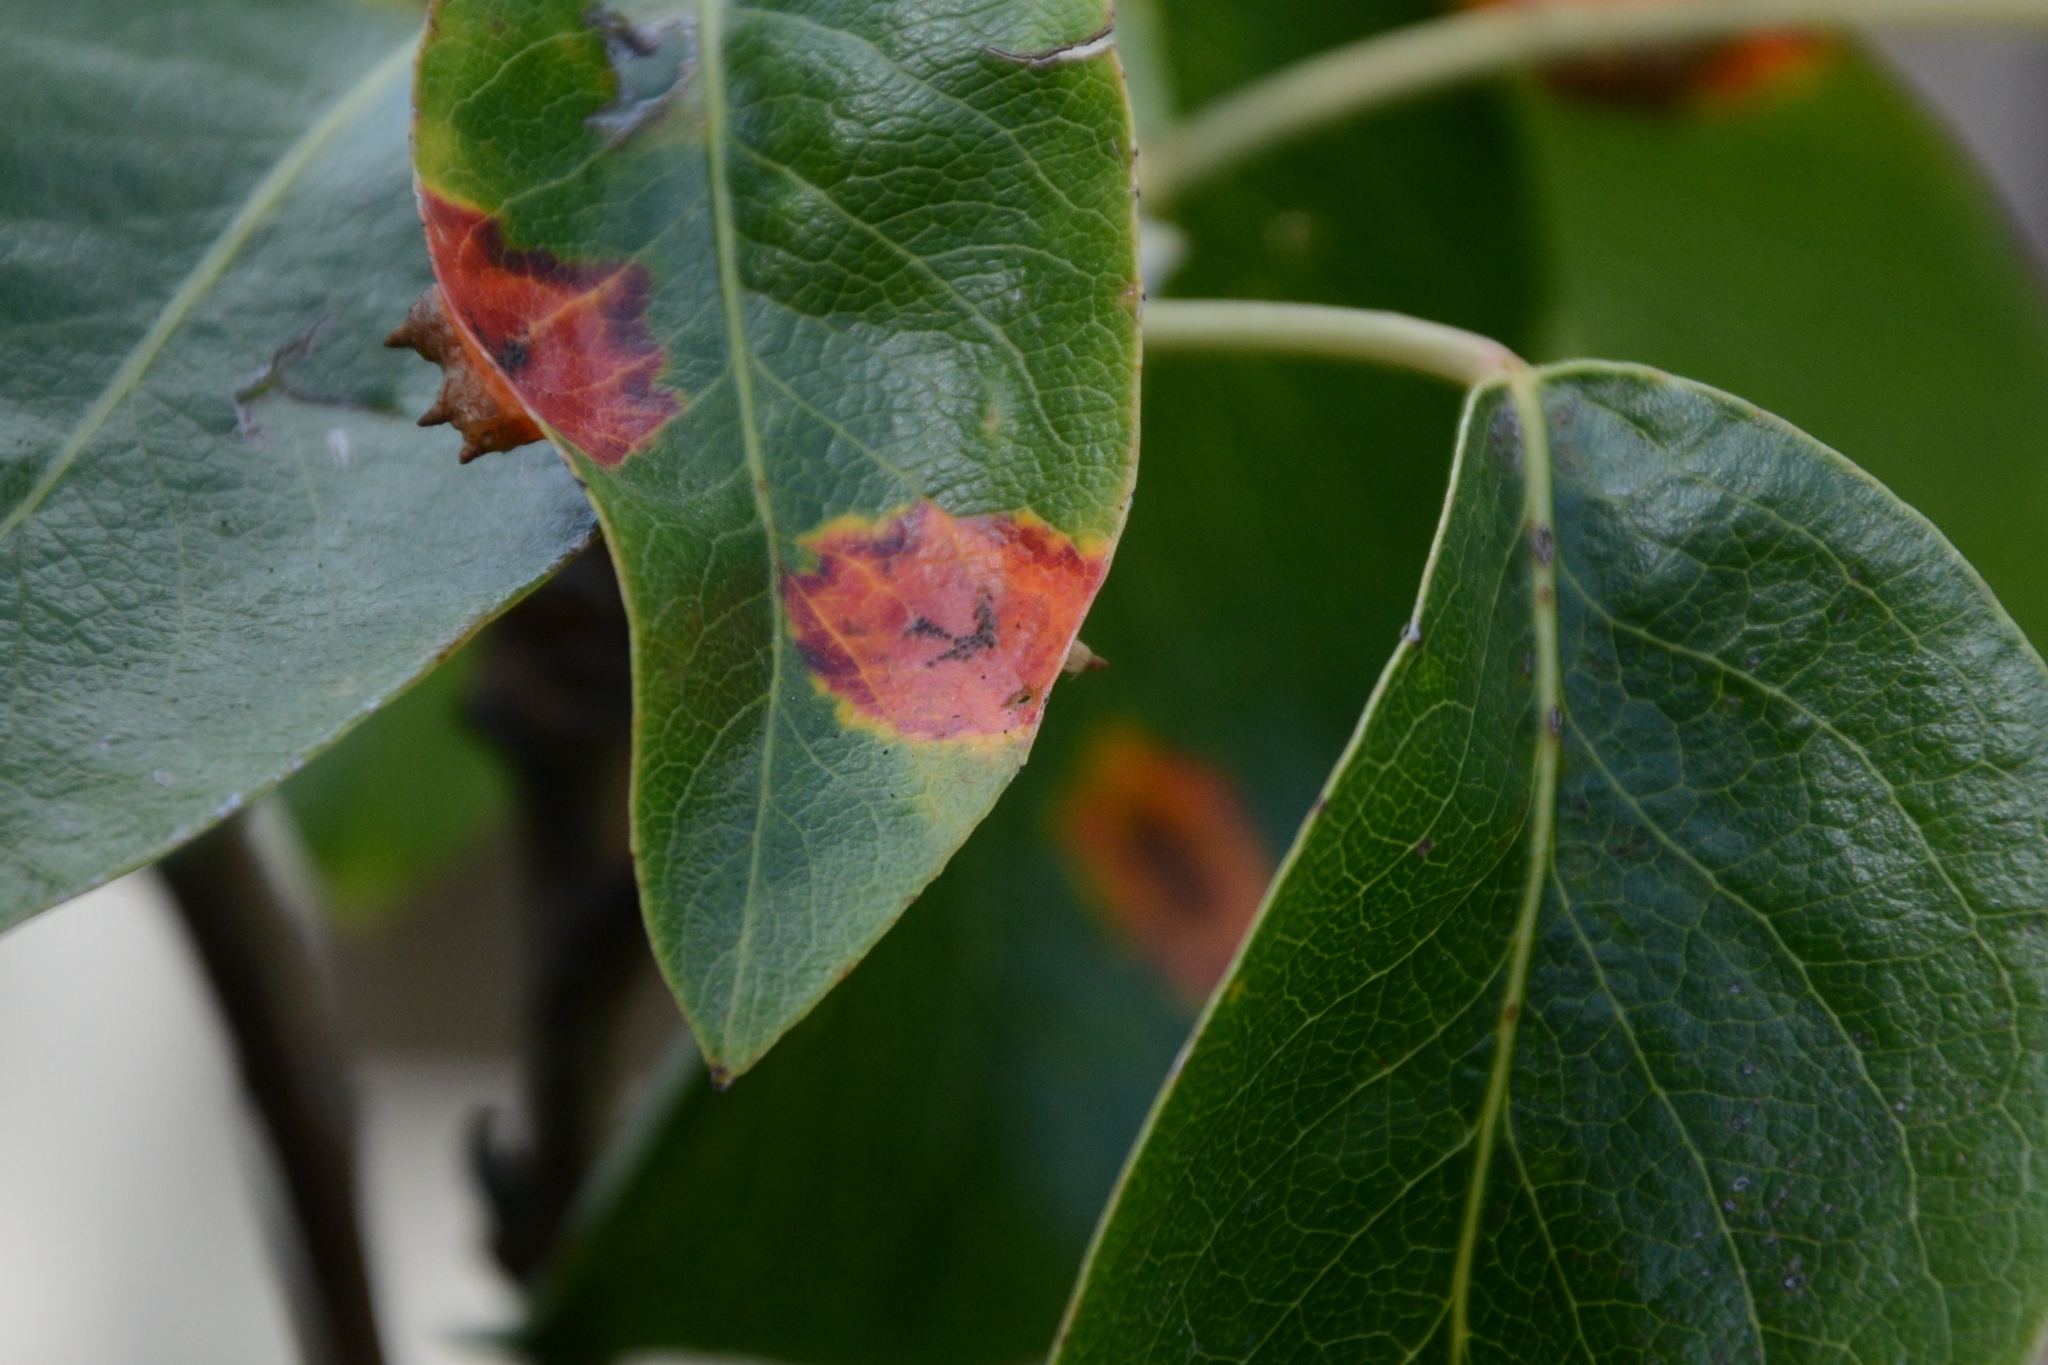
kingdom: Fungi
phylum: Basidiomycota
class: Pucciniomycetes
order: Pucciniales
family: Gymnosporangiaceae
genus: Gymnosporangium
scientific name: Gymnosporangium sabinae
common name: Pear trellis rust fungus
